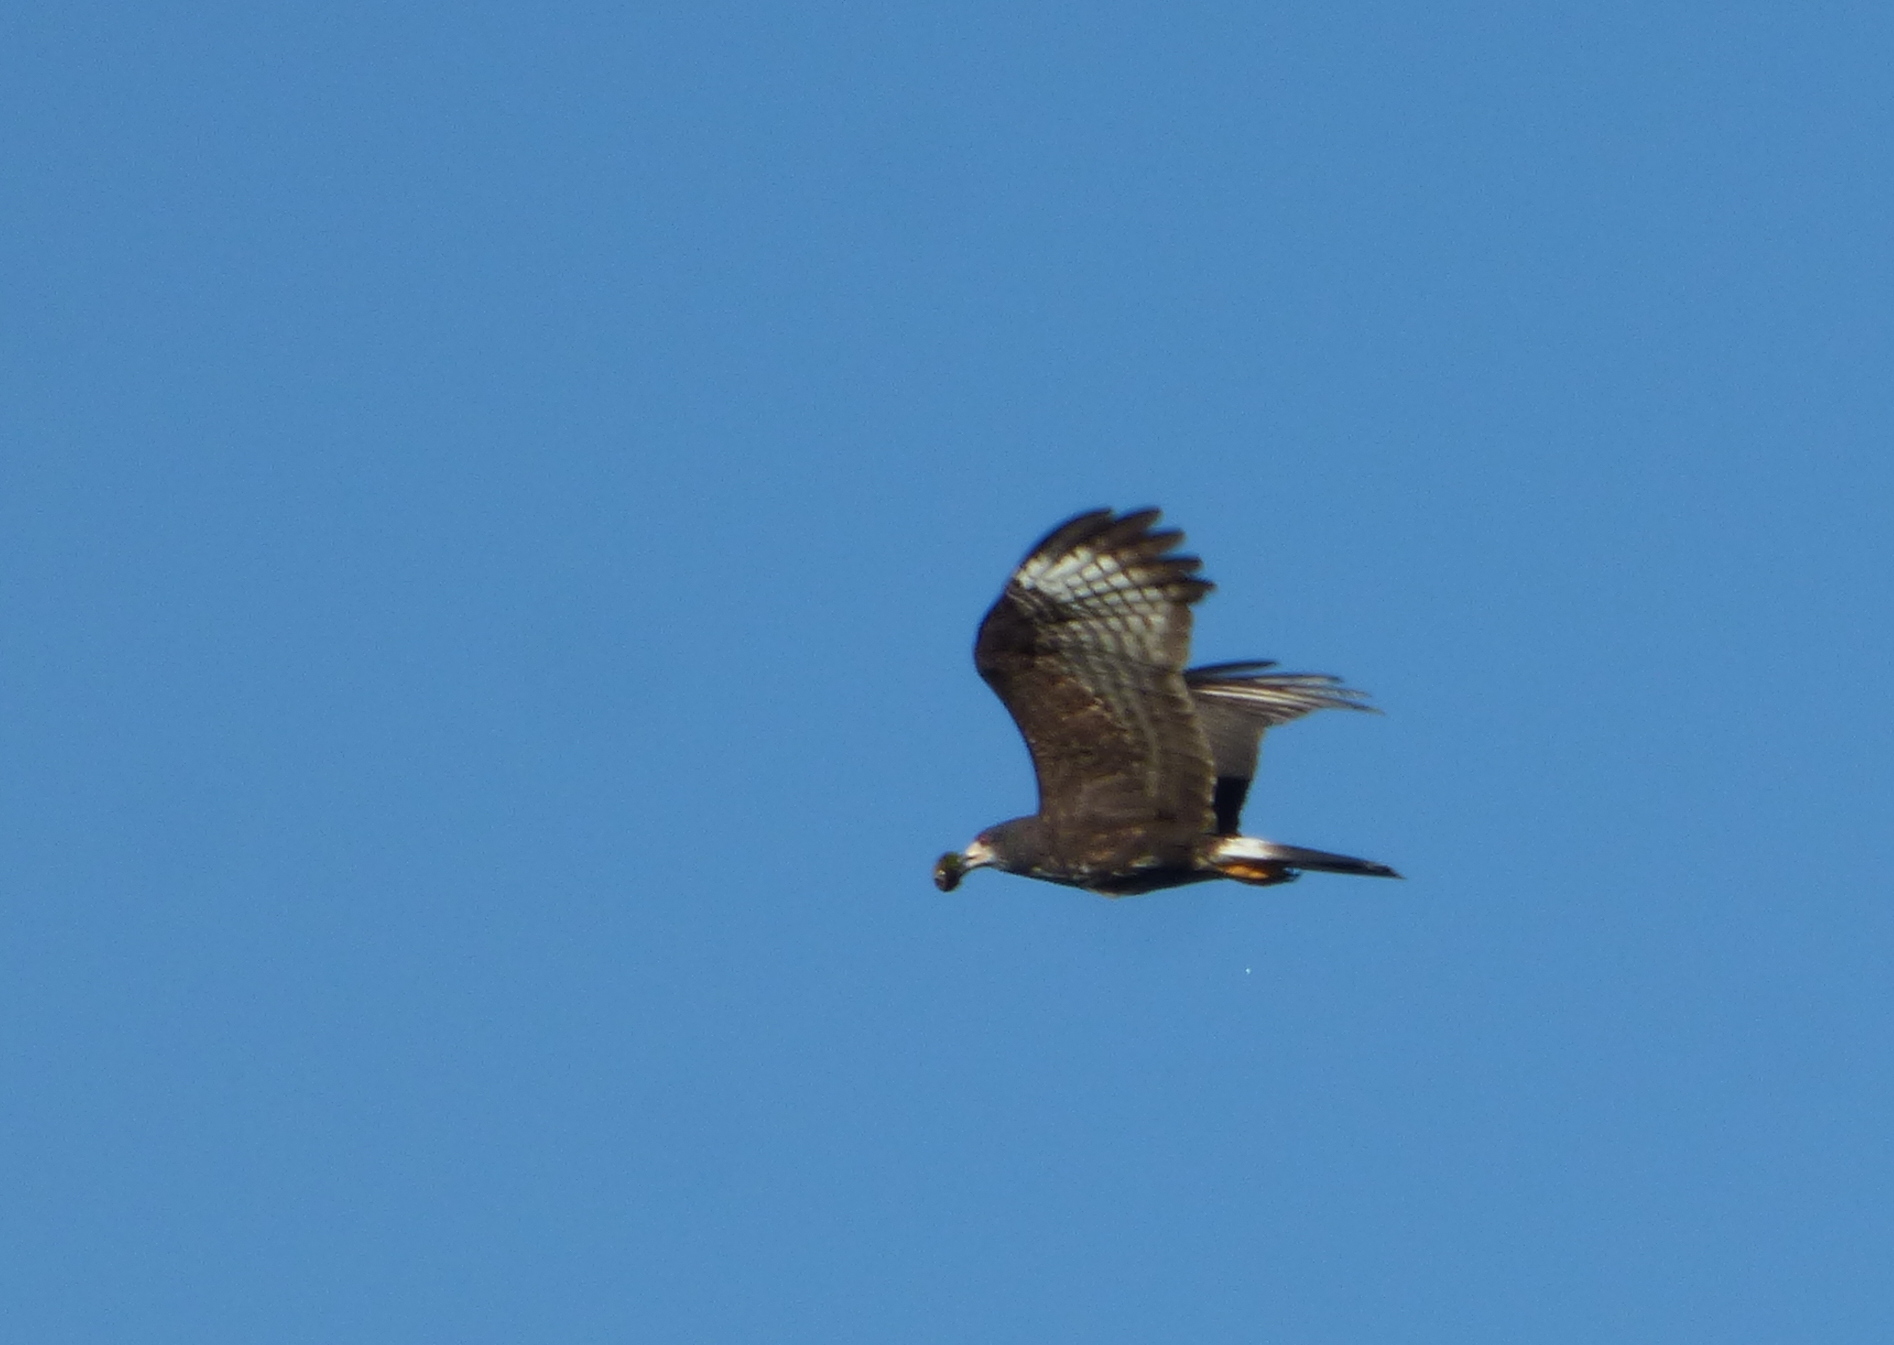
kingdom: Animalia
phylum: Chordata
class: Aves
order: Accipitriformes
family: Accipitridae
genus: Rostrhamus
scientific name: Rostrhamus sociabilis
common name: Snail kite
